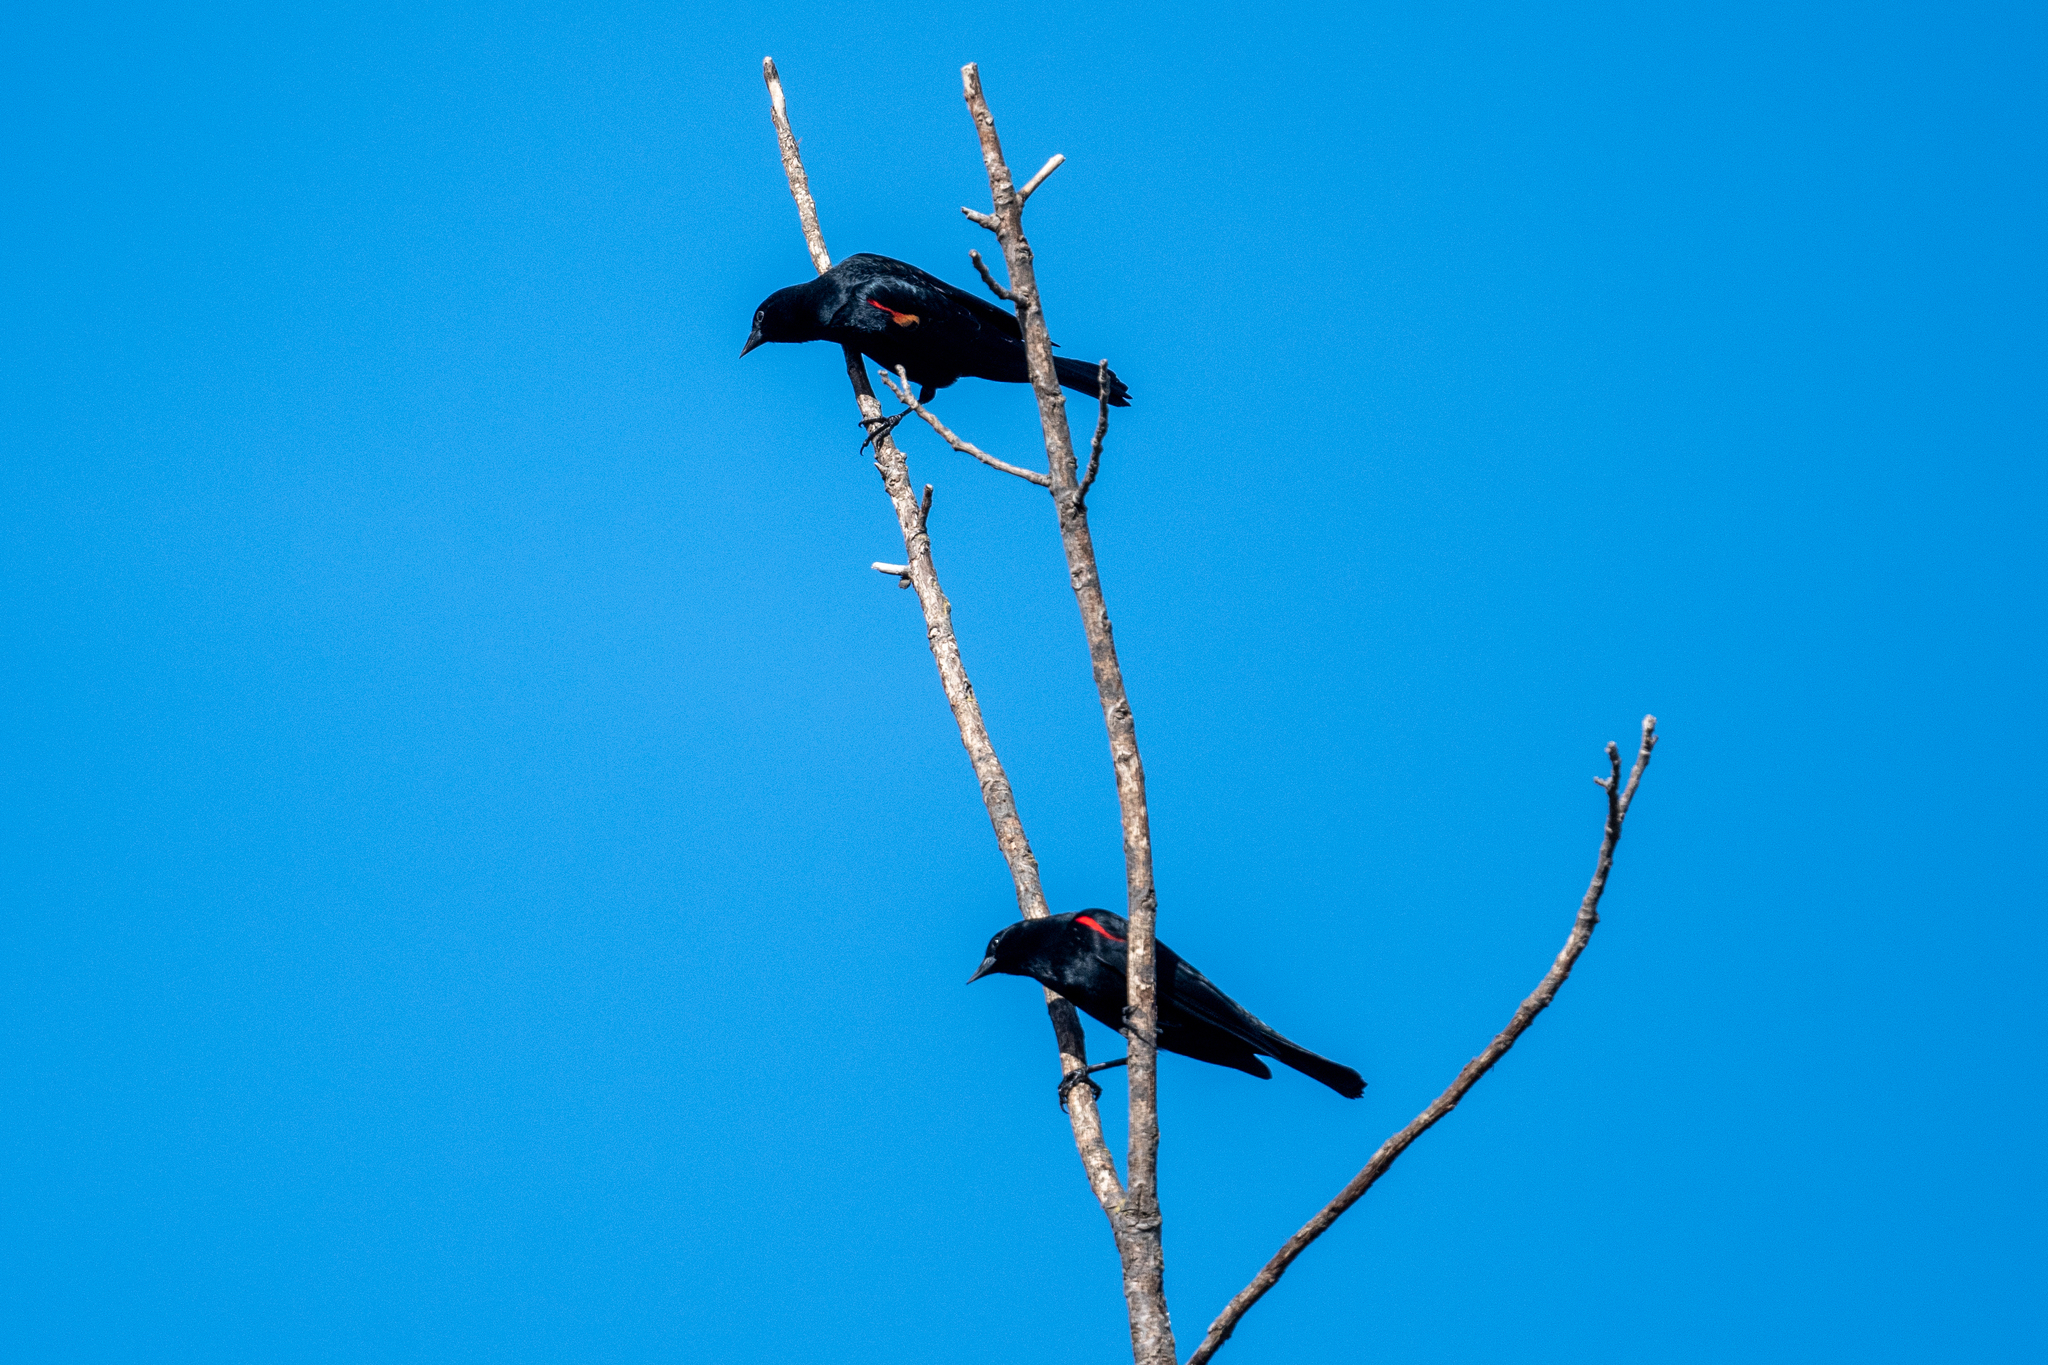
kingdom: Animalia
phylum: Chordata
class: Aves
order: Passeriformes
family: Icteridae
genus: Agelaius
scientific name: Agelaius phoeniceus
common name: Red-winged blackbird
